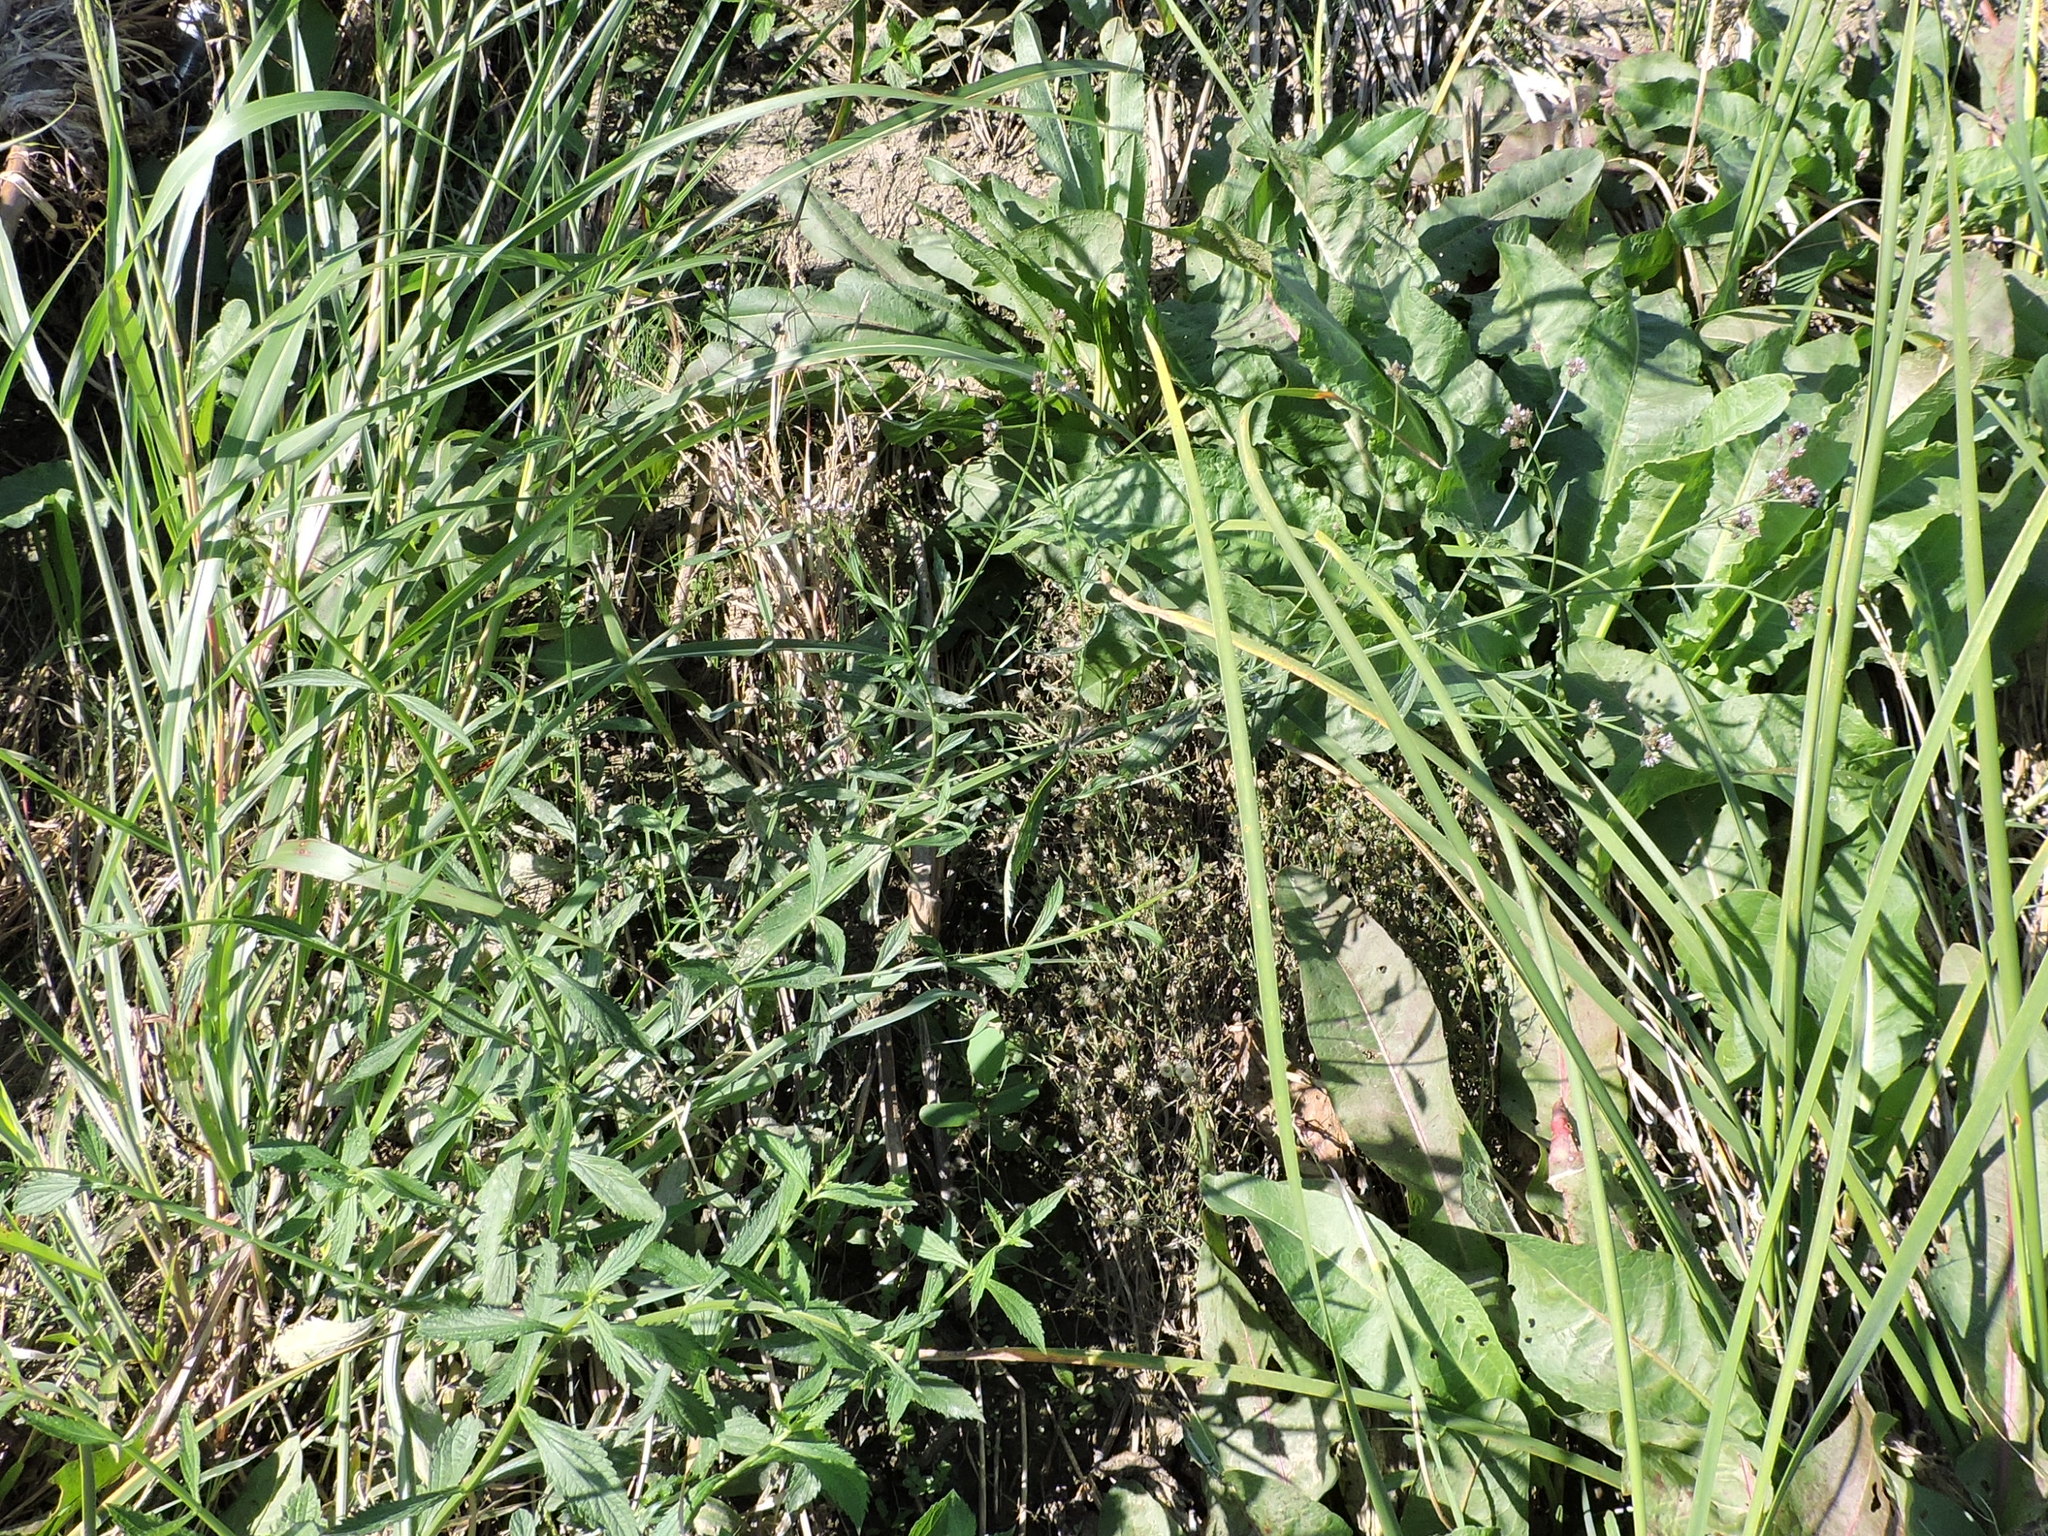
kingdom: Plantae
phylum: Tracheophyta
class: Magnoliopsida
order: Lamiales
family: Verbenaceae
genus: Verbena
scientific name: Verbena brasiliensis
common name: Brazilian vervain
